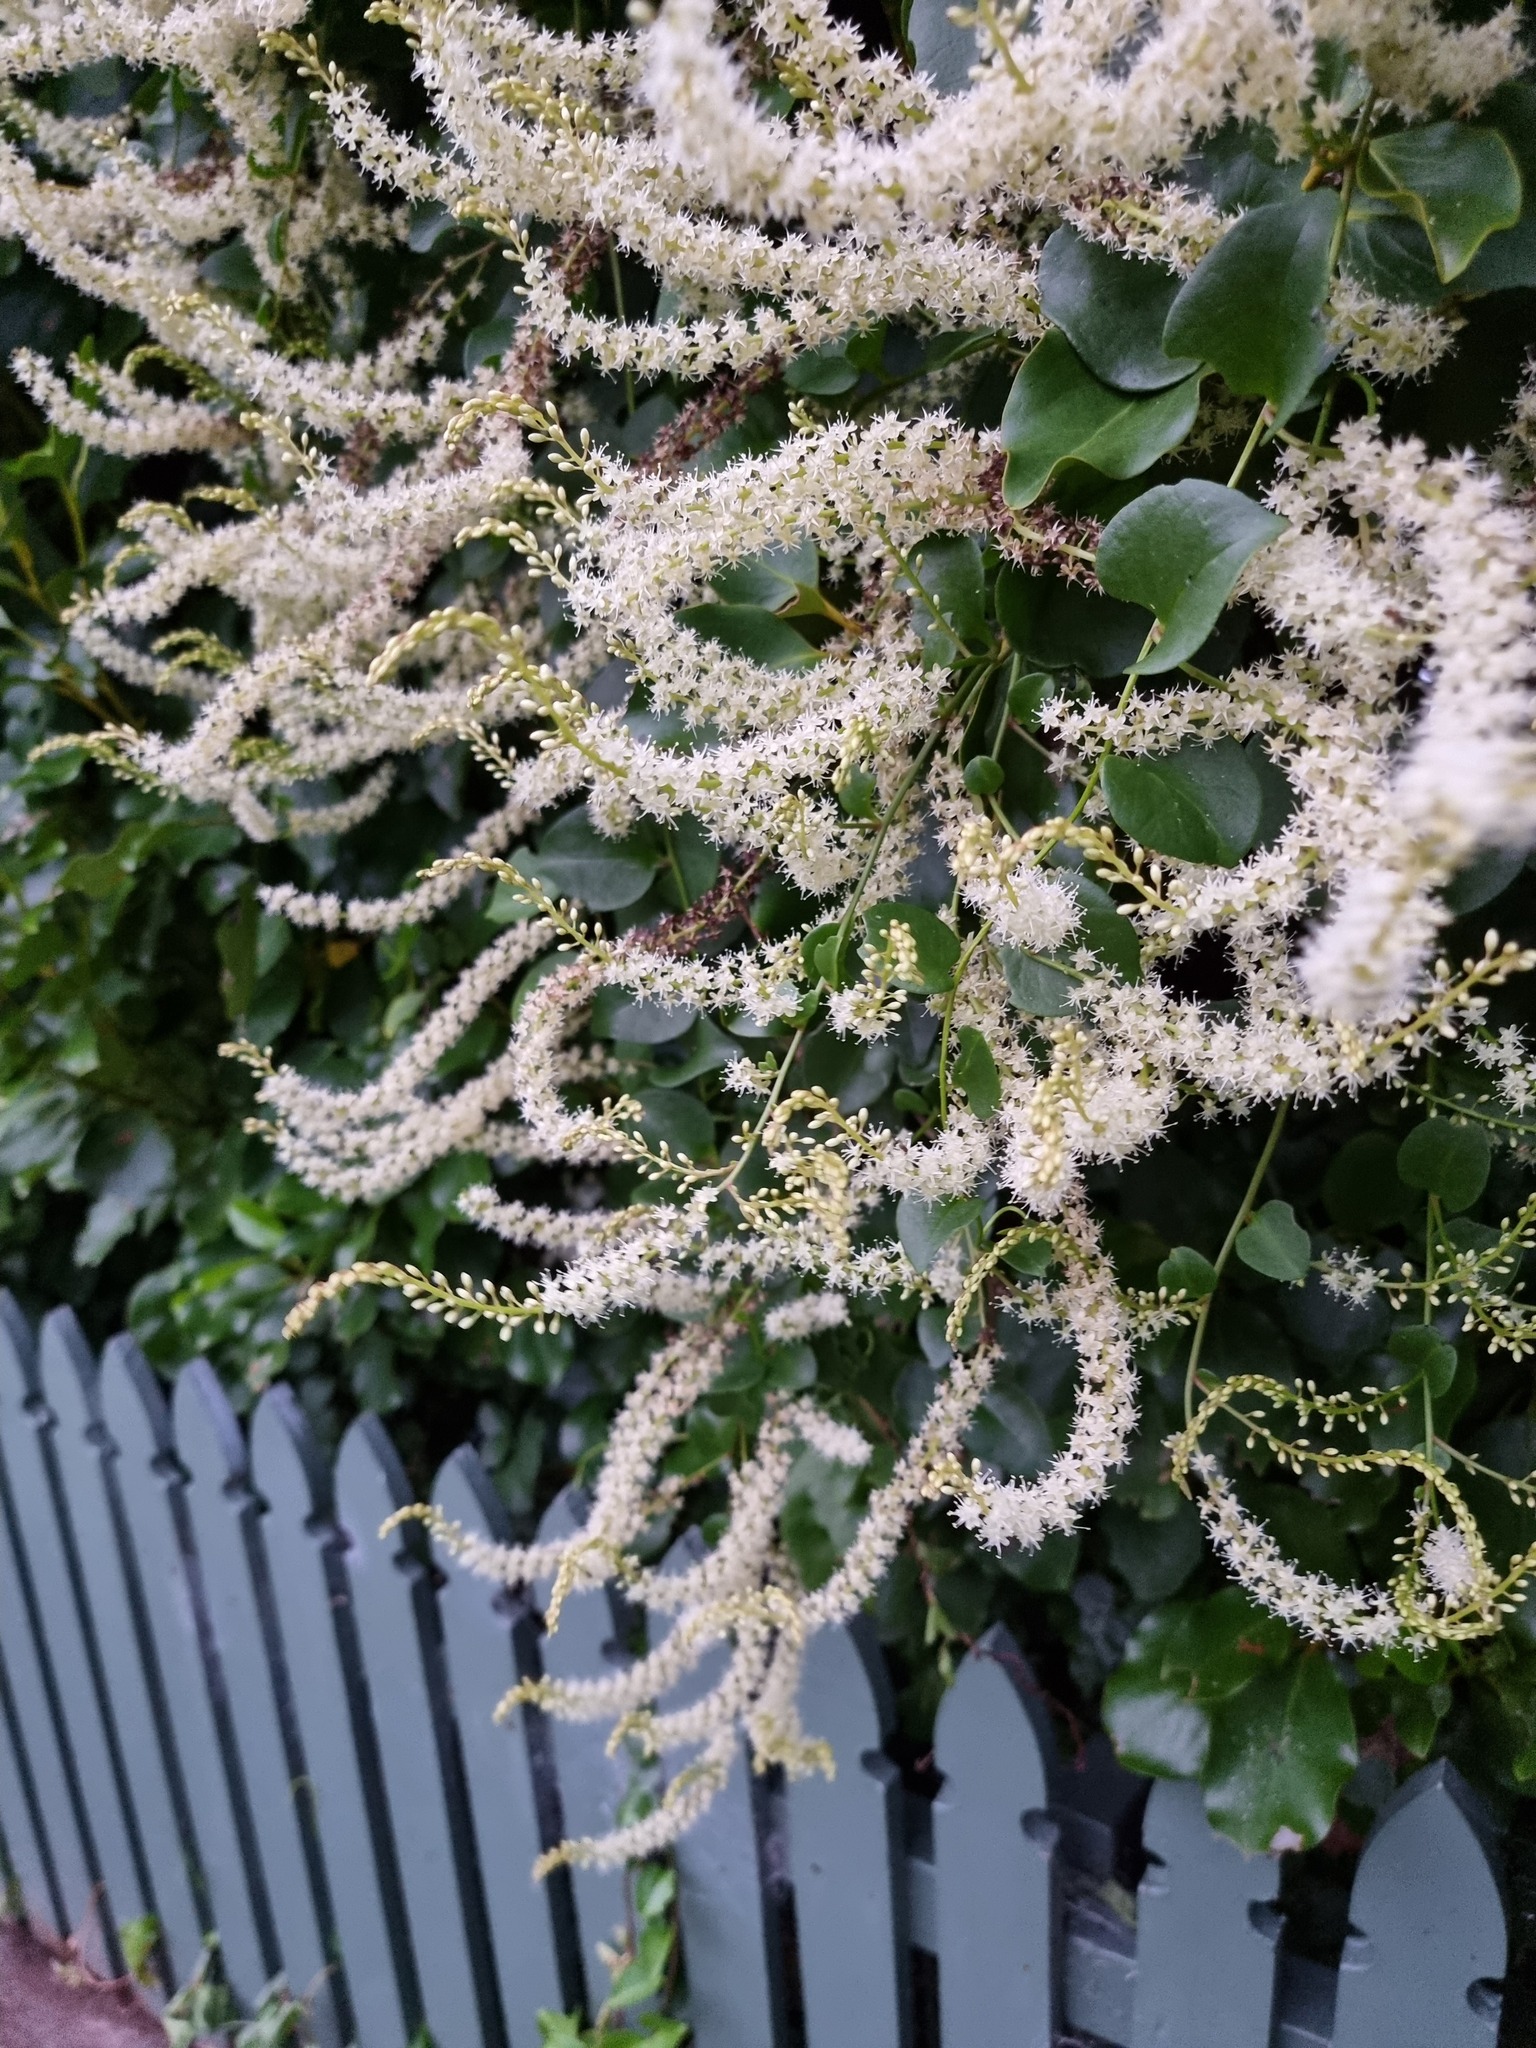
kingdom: Plantae
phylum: Tracheophyta
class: Magnoliopsida
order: Caryophyllales
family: Basellaceae
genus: Anredera
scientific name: Anredera cordifolia
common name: Heartleaf madeiravine
